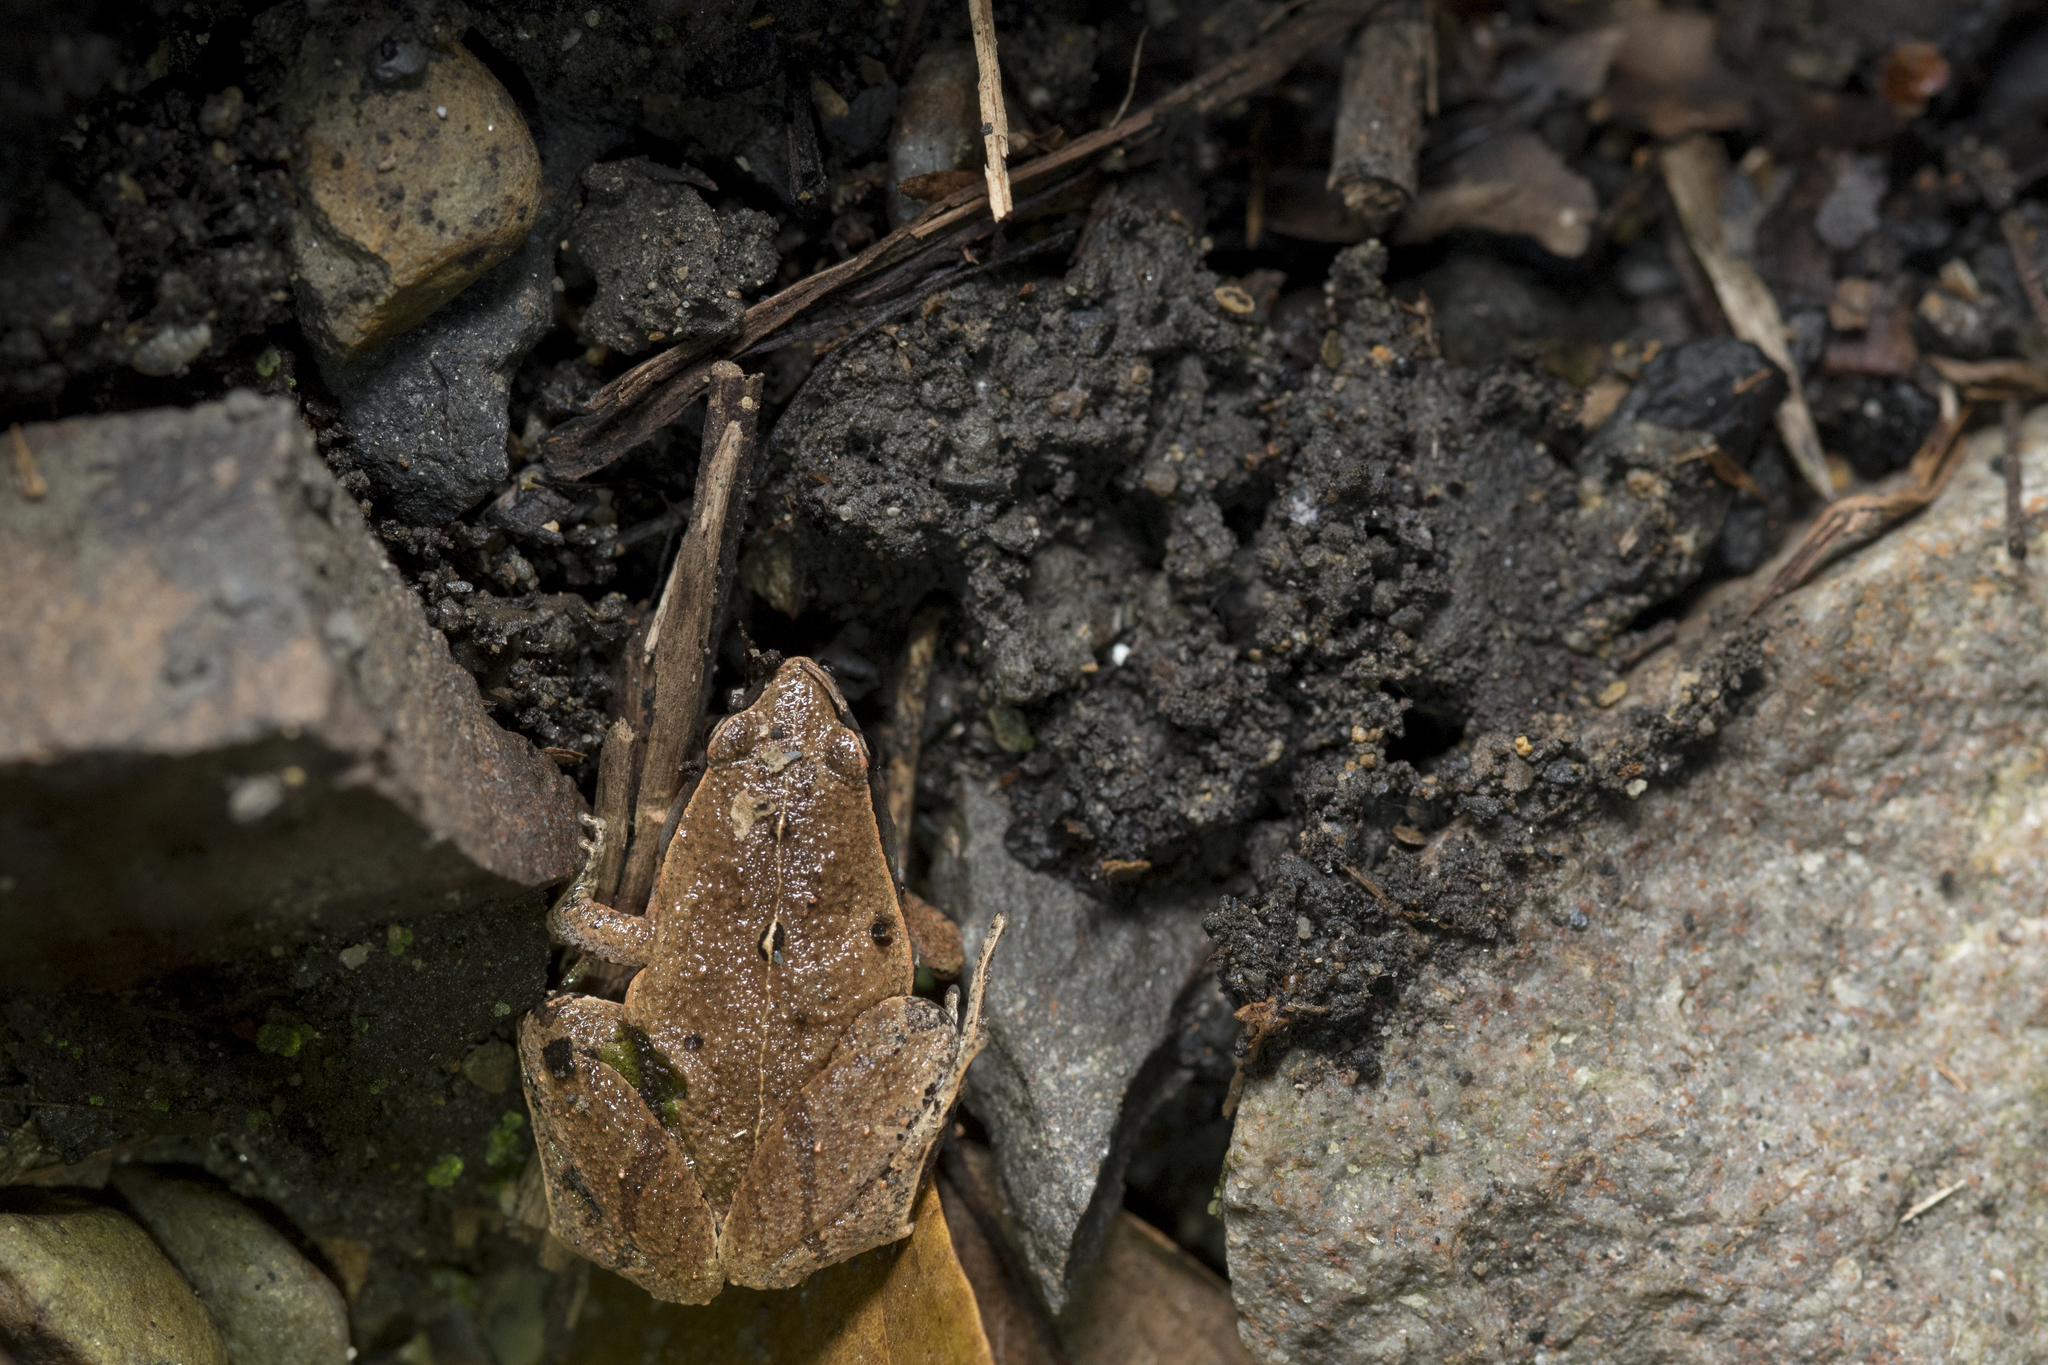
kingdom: Animalia
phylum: Chordata
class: Amphibia
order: Anura
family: Microhylidae
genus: Microhyla
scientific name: Microhyla heymonsi
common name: Taiwan rice frog,dark sided chorus frog
